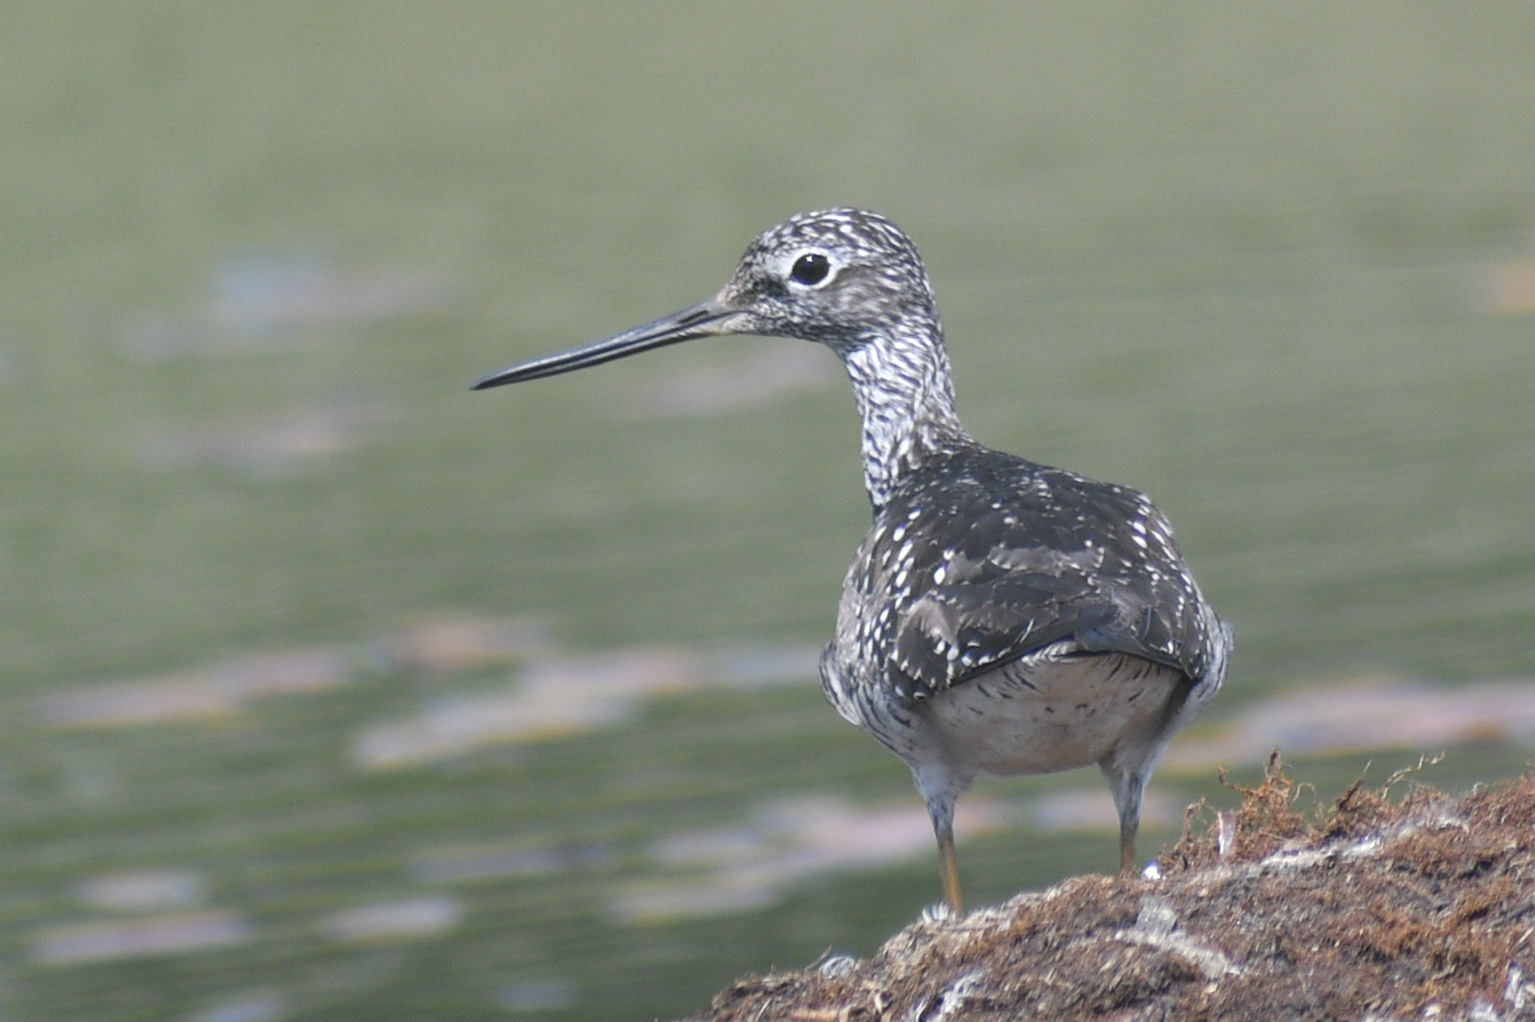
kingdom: Animalia
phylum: Chordata
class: Aves
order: Charadriiformes
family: Scolopacidae
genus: Tringa
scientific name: Tringa melanoleuca
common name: Greater yellowlegs
